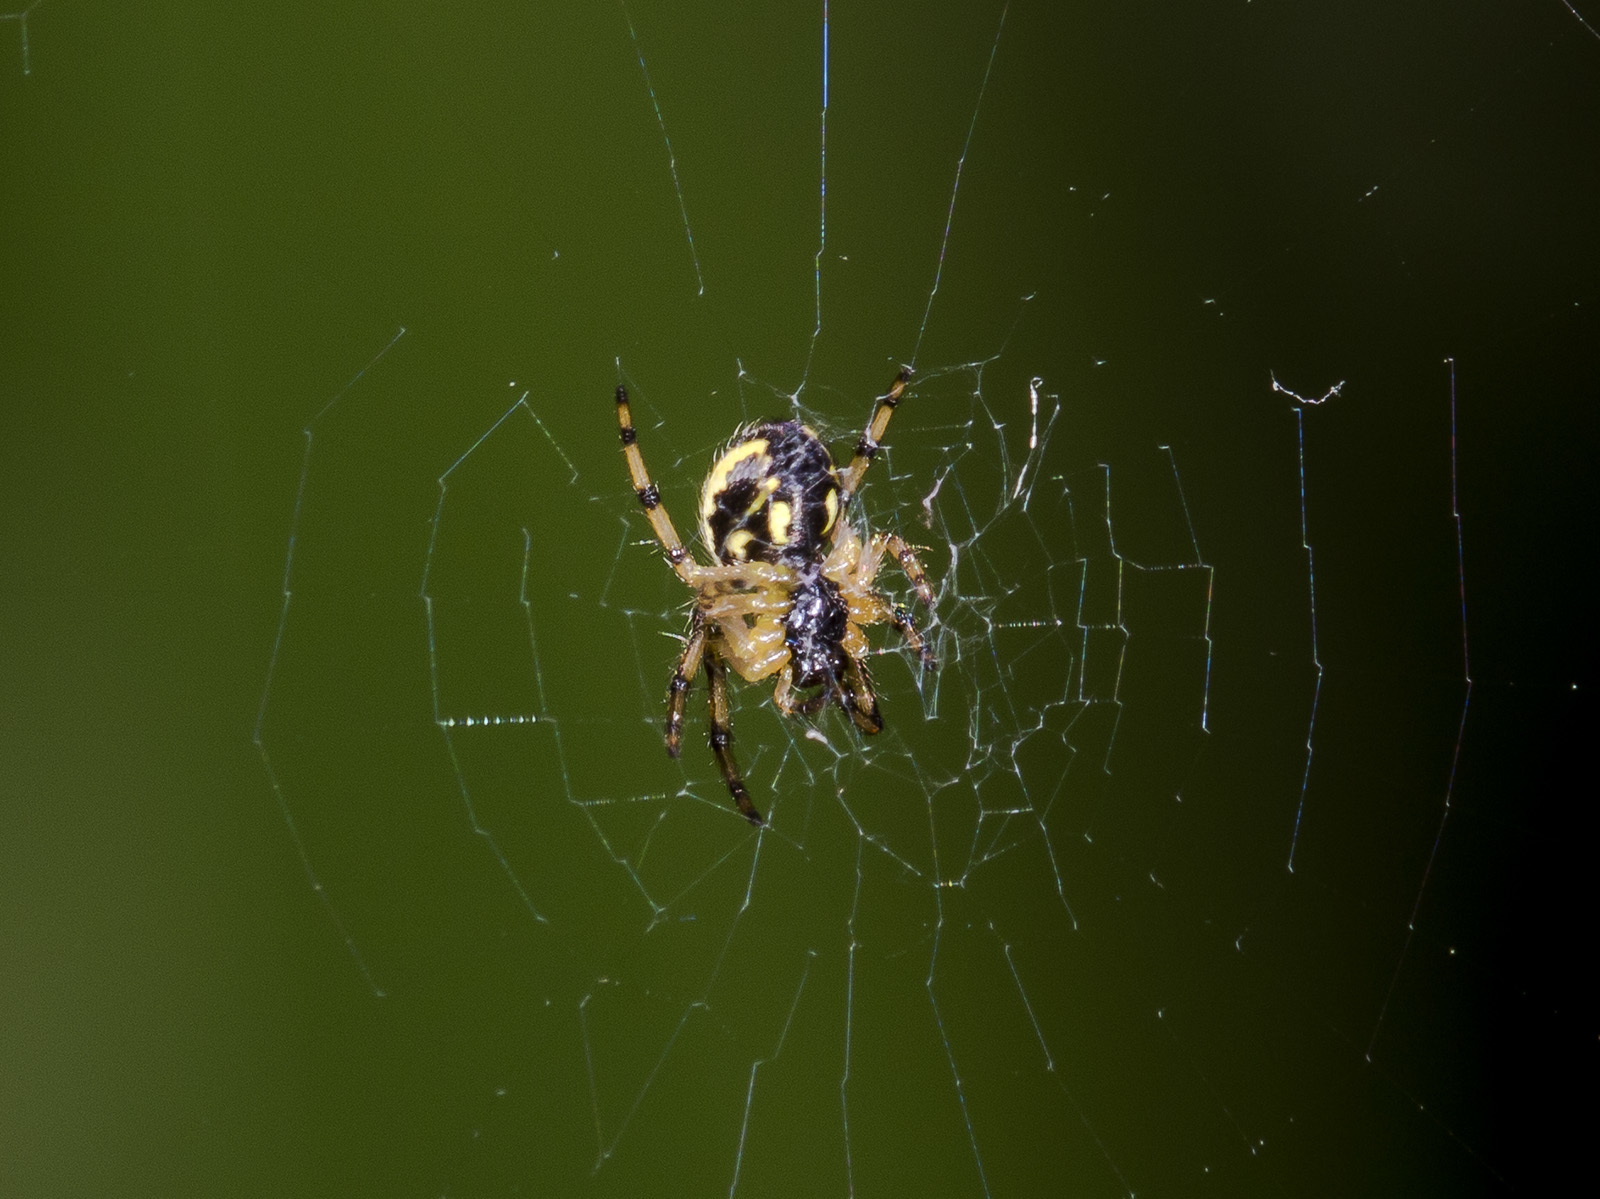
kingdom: Animalia
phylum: Arthropoda
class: Arachnida
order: Araneae
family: Araneidae
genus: Neoscona
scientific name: Neoscona adianta
